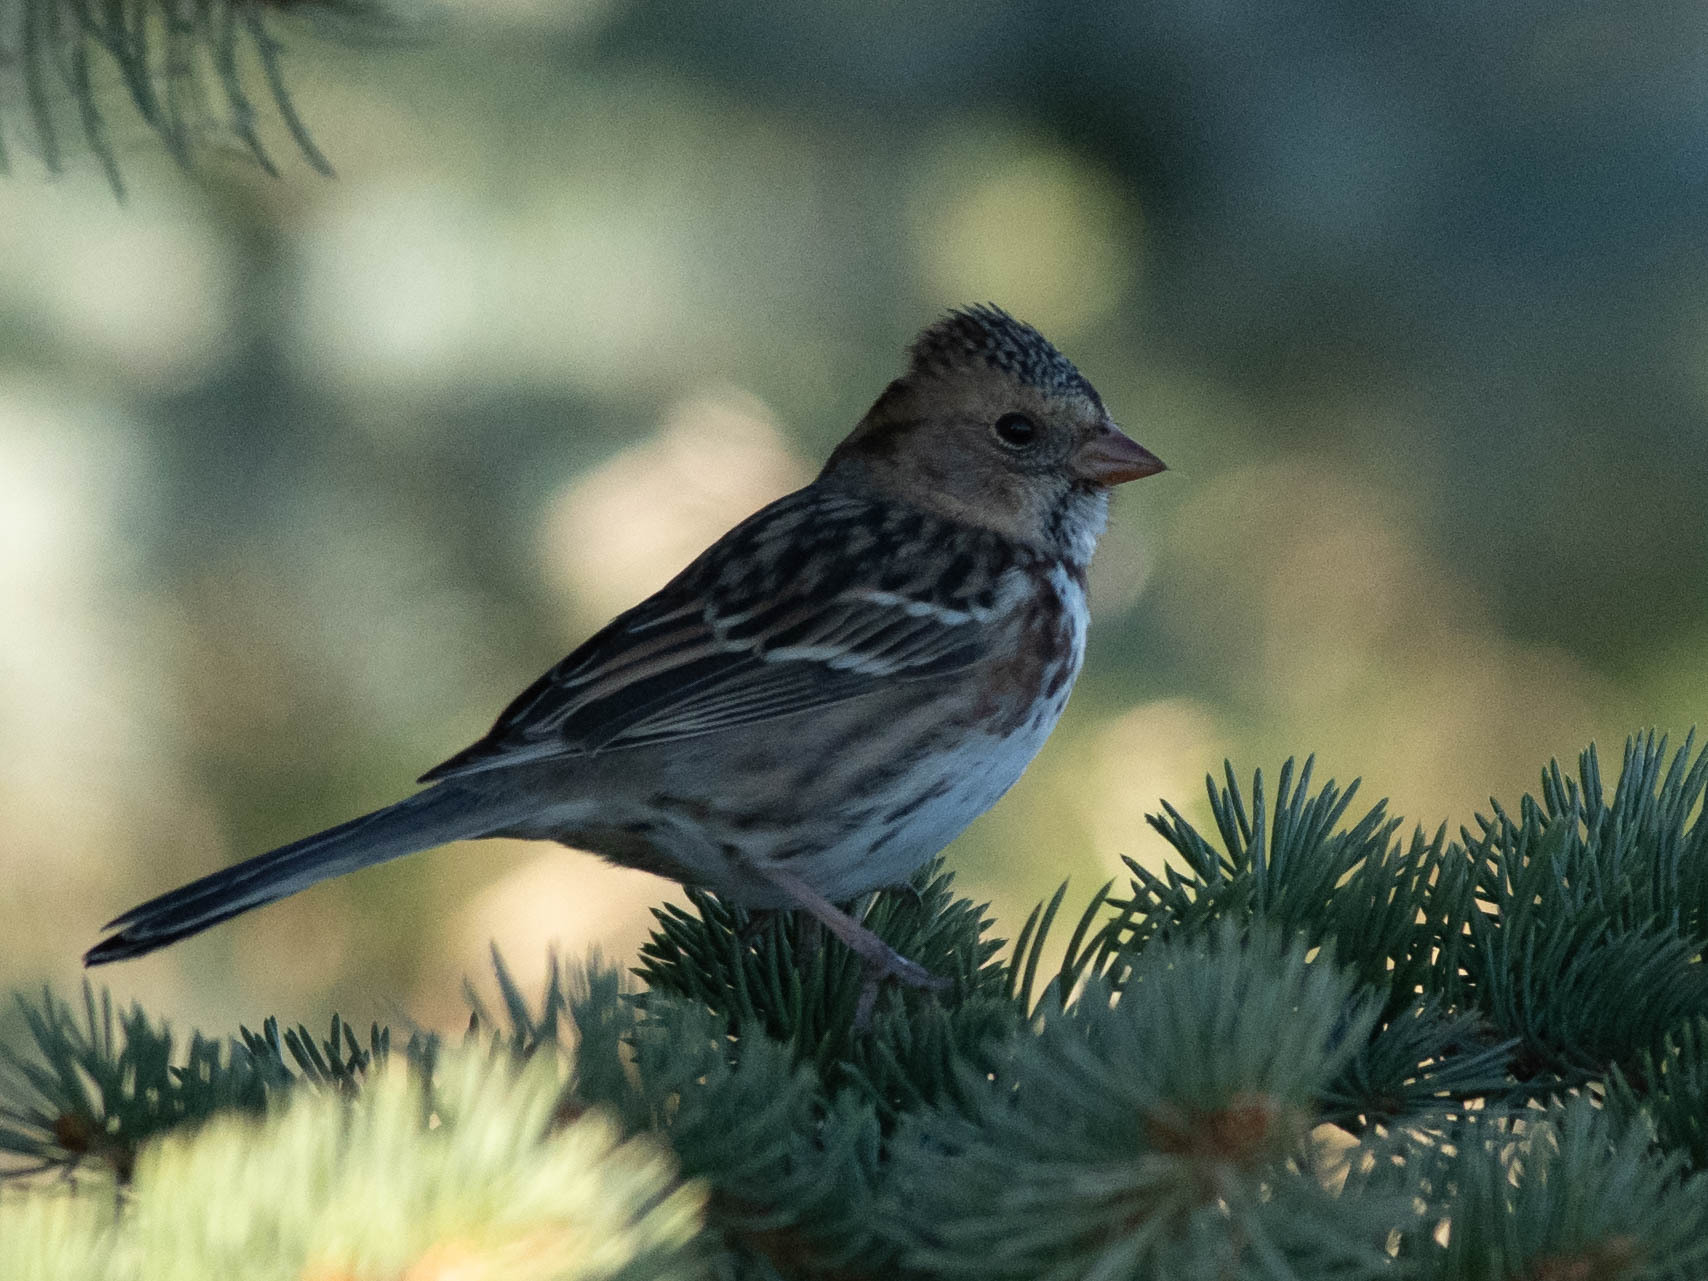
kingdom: Animalia
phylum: Chordata
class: Aves
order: Passeriformes
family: Passerellidae
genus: Zonotrichia
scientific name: Zonotrichia querula
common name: Harris's sparrow
